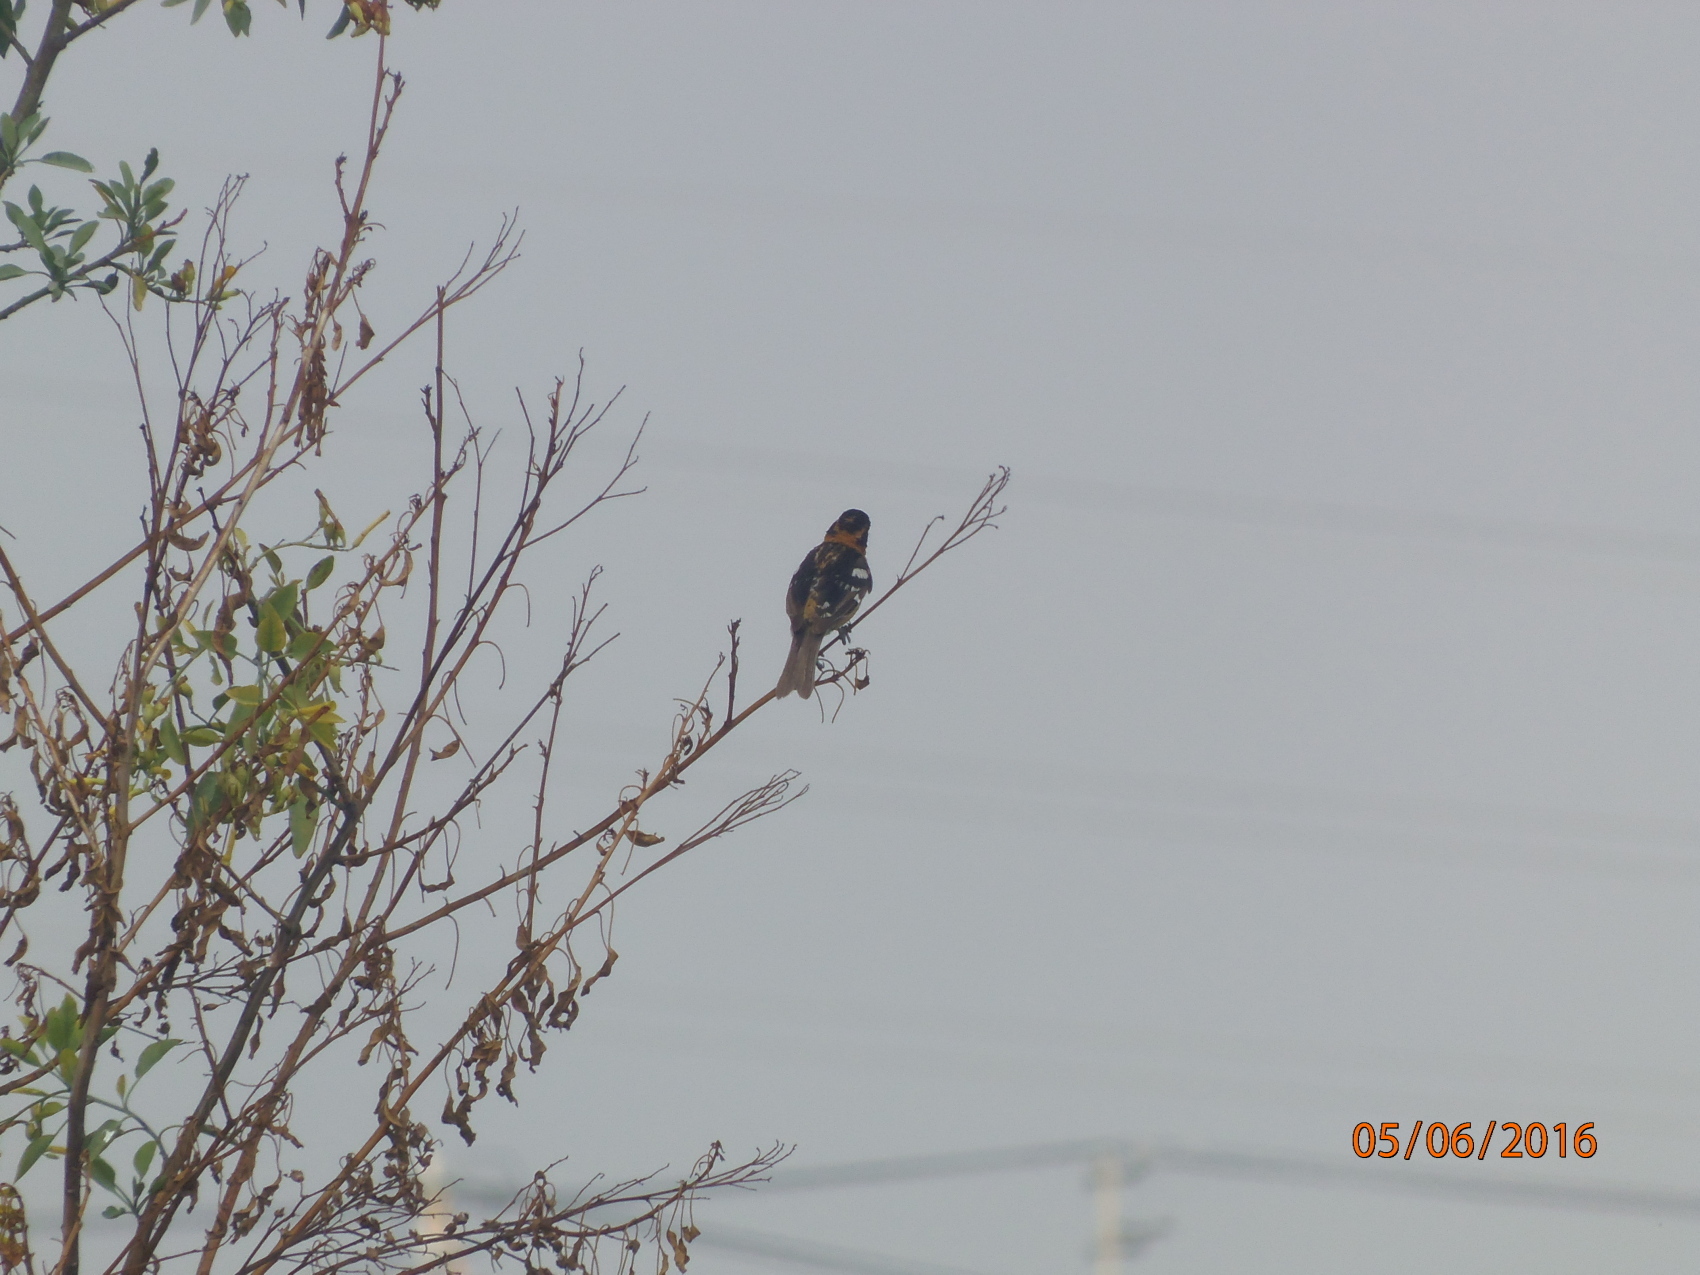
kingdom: Animalia
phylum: Chordata
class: Aves
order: Passeriformes
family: Cardinalidae
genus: Pheucticus
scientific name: Pheucticus melanocephalus
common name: Black-headed grosbeak
